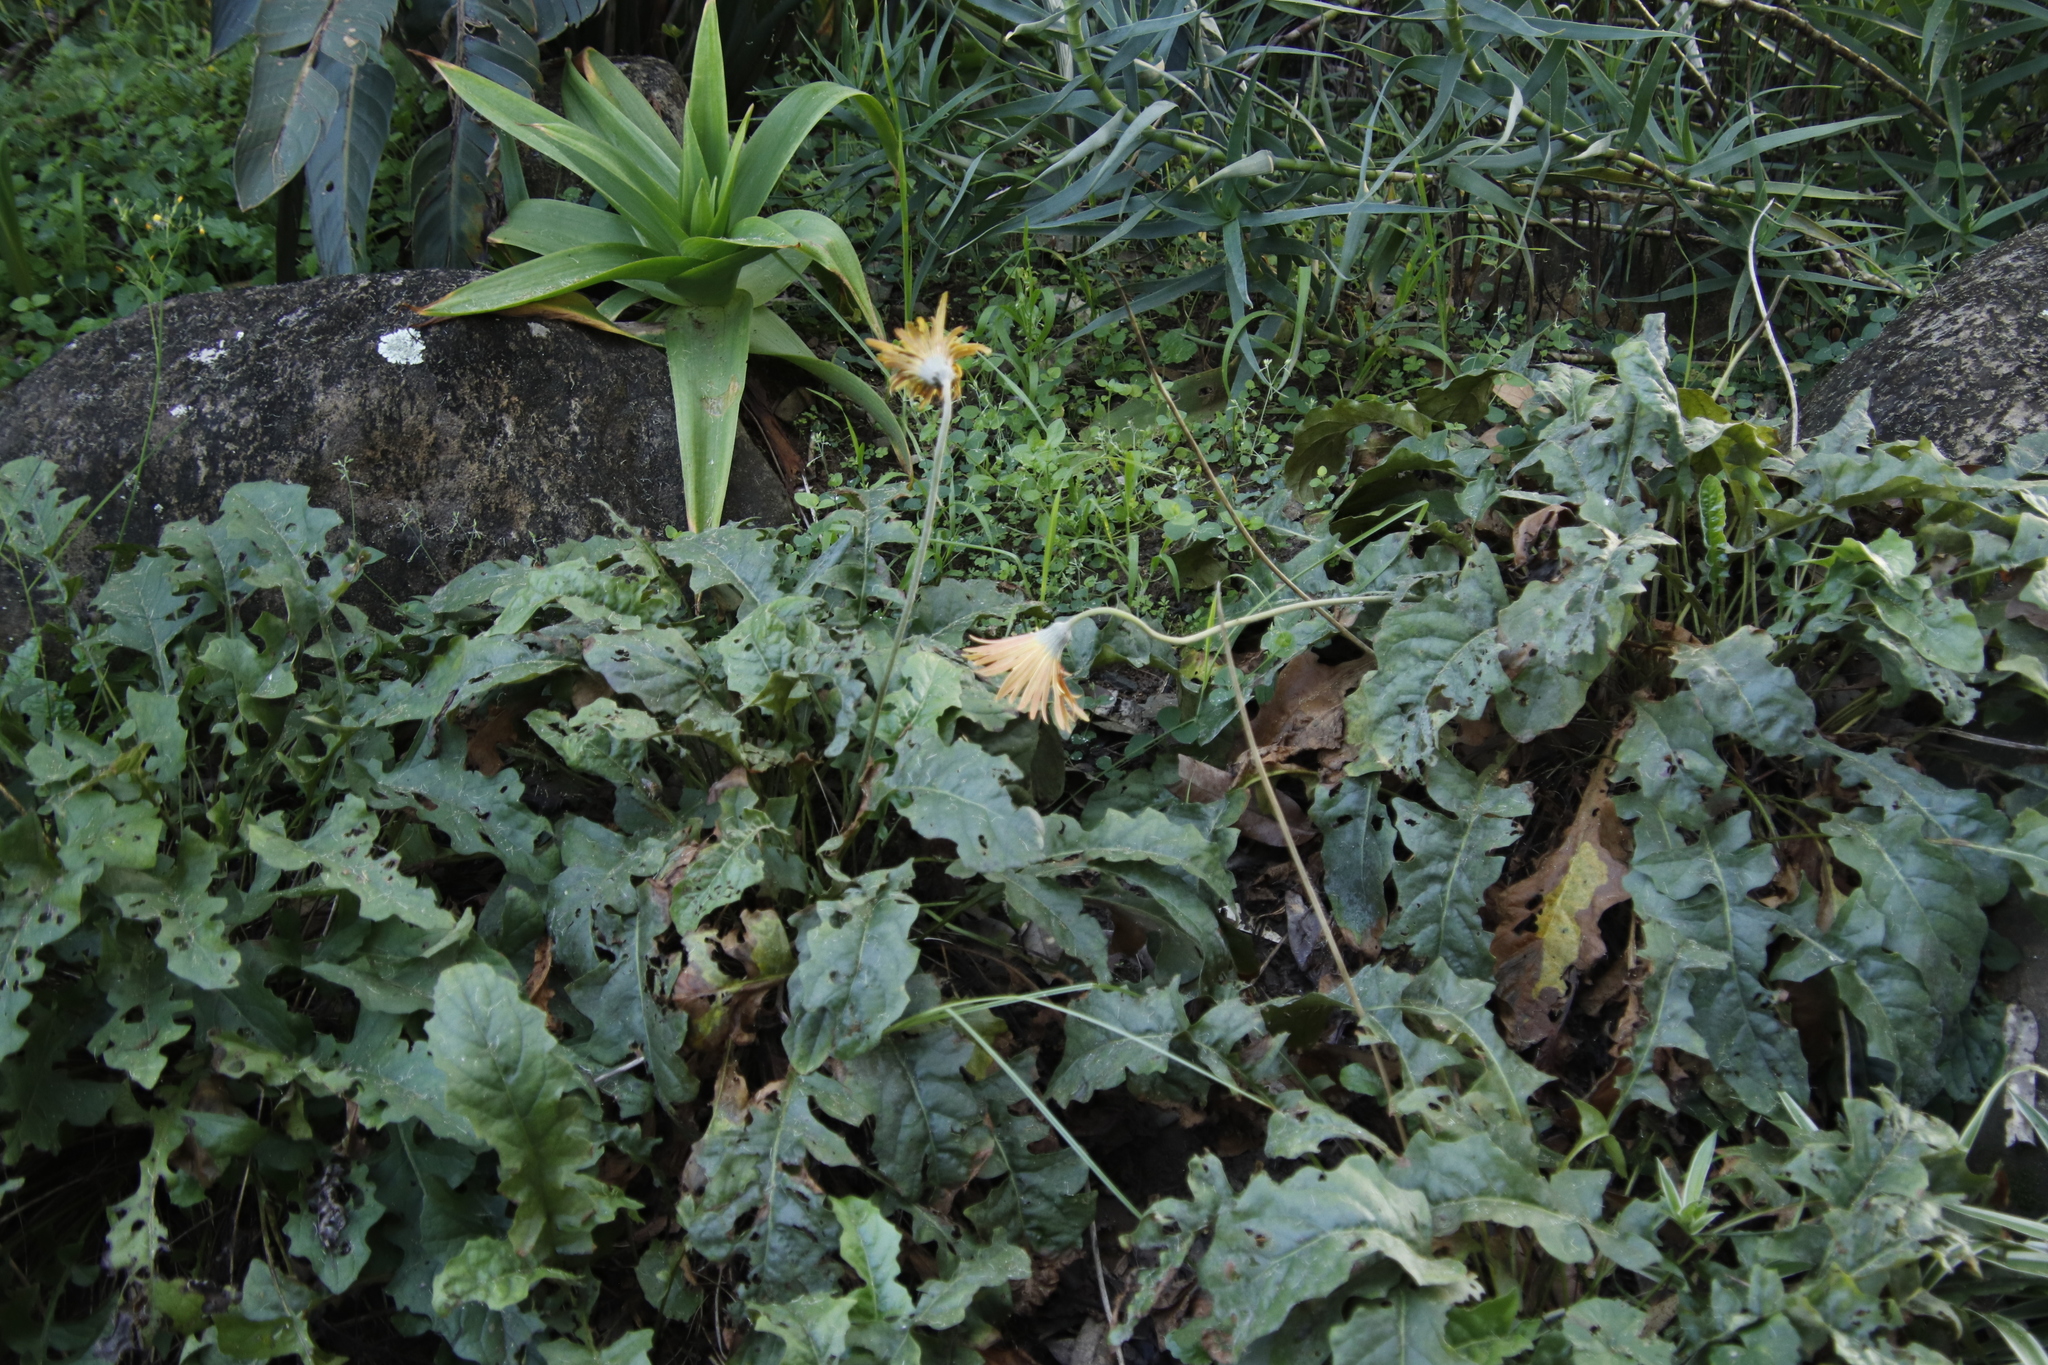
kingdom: Plantae
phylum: Tracheophyta
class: Magnoliopsida
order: Asterales
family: Asteraceae
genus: Gerbera
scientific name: Gerbera jamesonii
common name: African daisy
